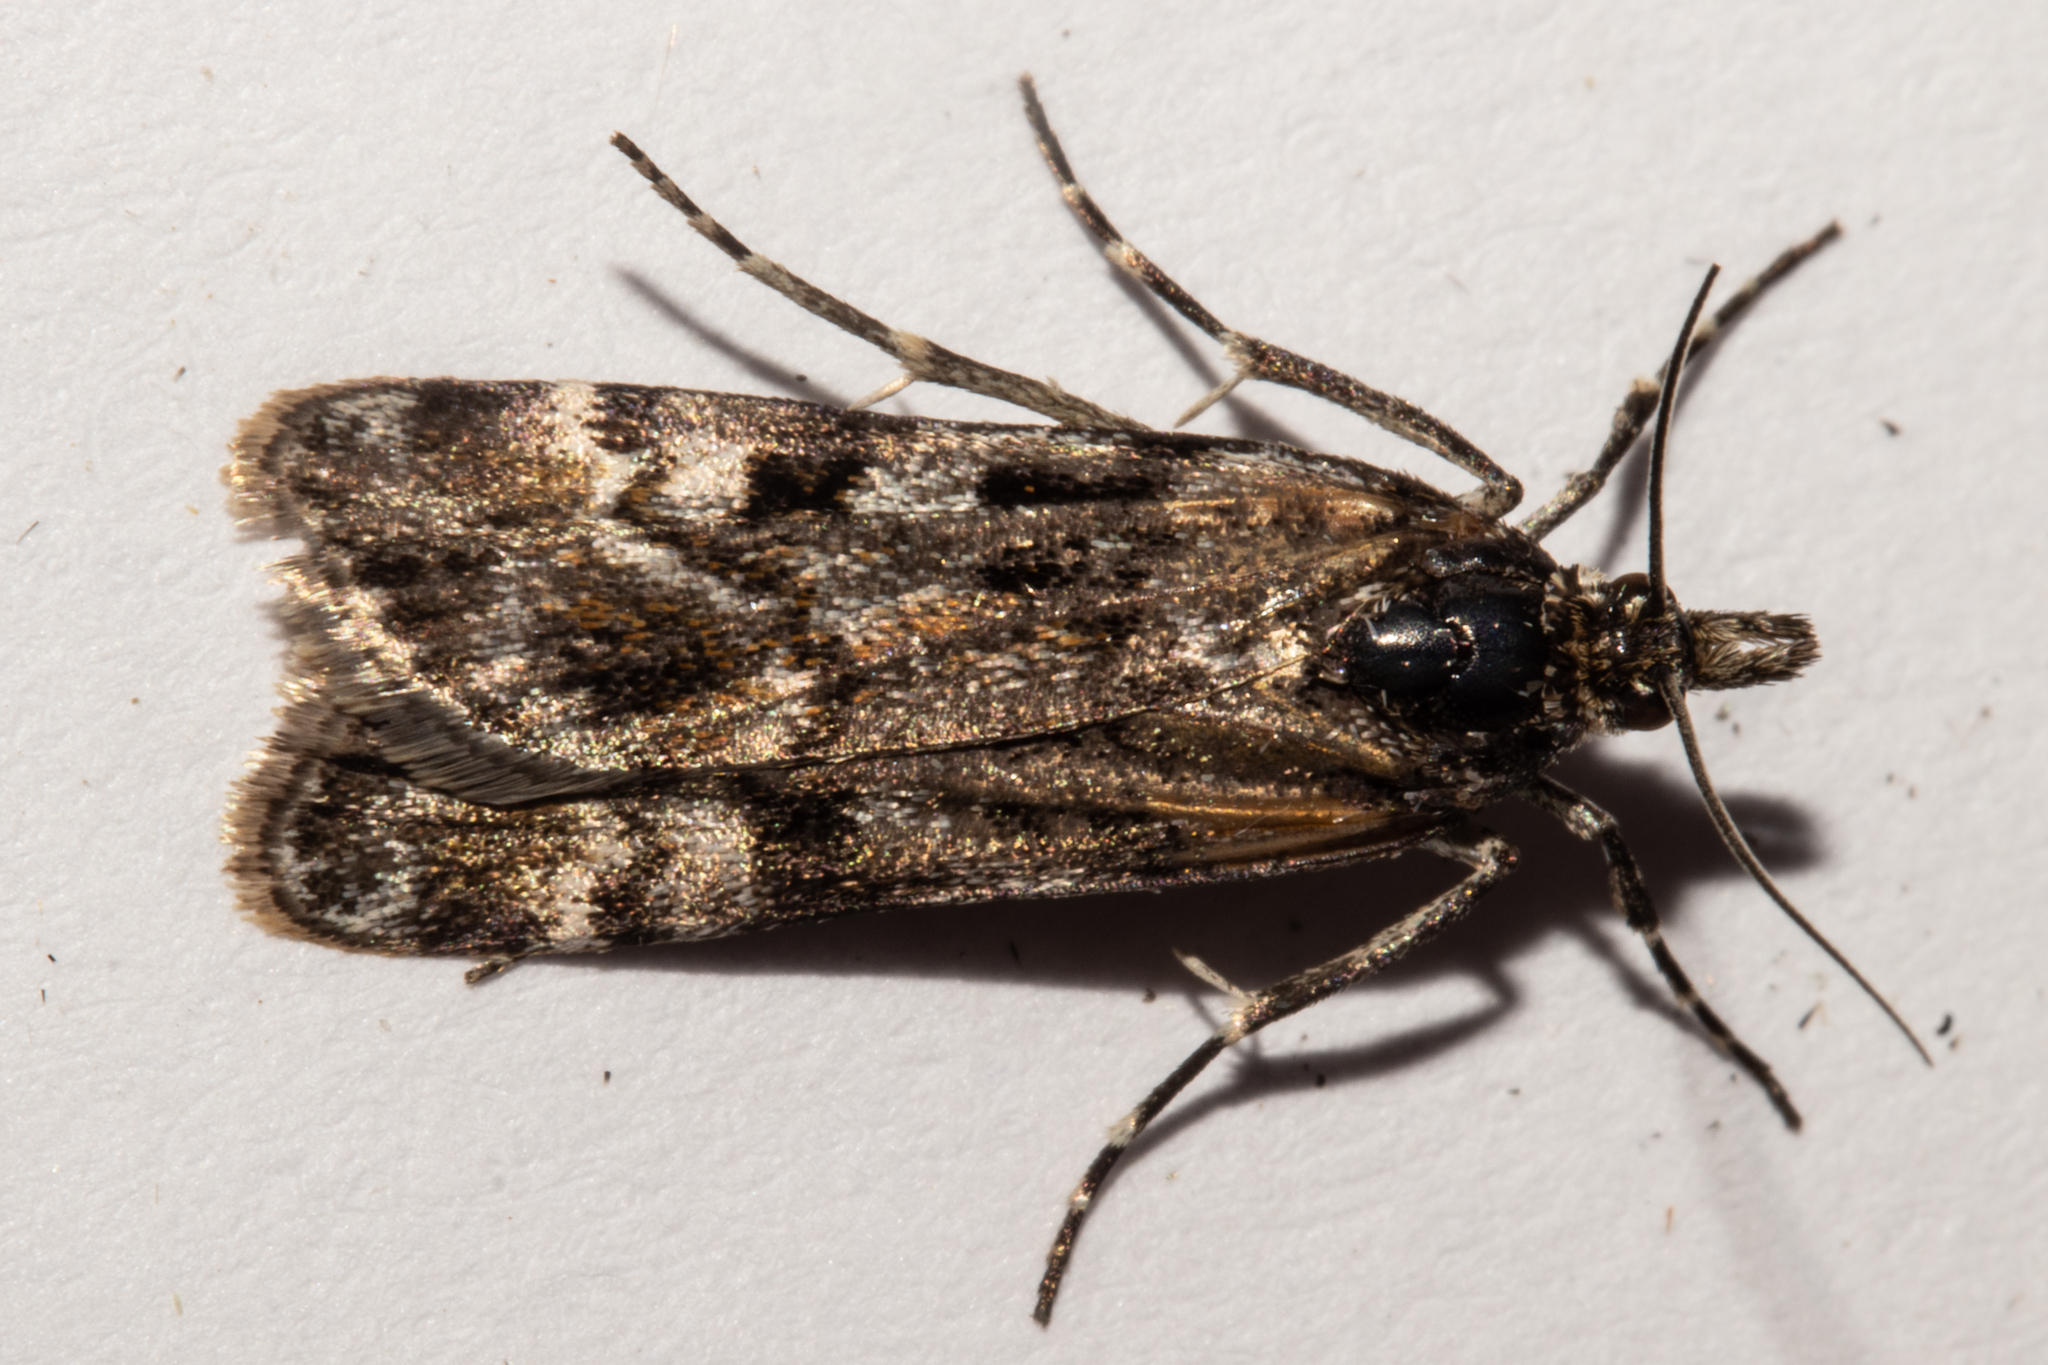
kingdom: Animalia
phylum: Arthropoda
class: Insecta
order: Lepidoptera
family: Crambidae
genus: Scoparia
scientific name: Scoparia famularis
